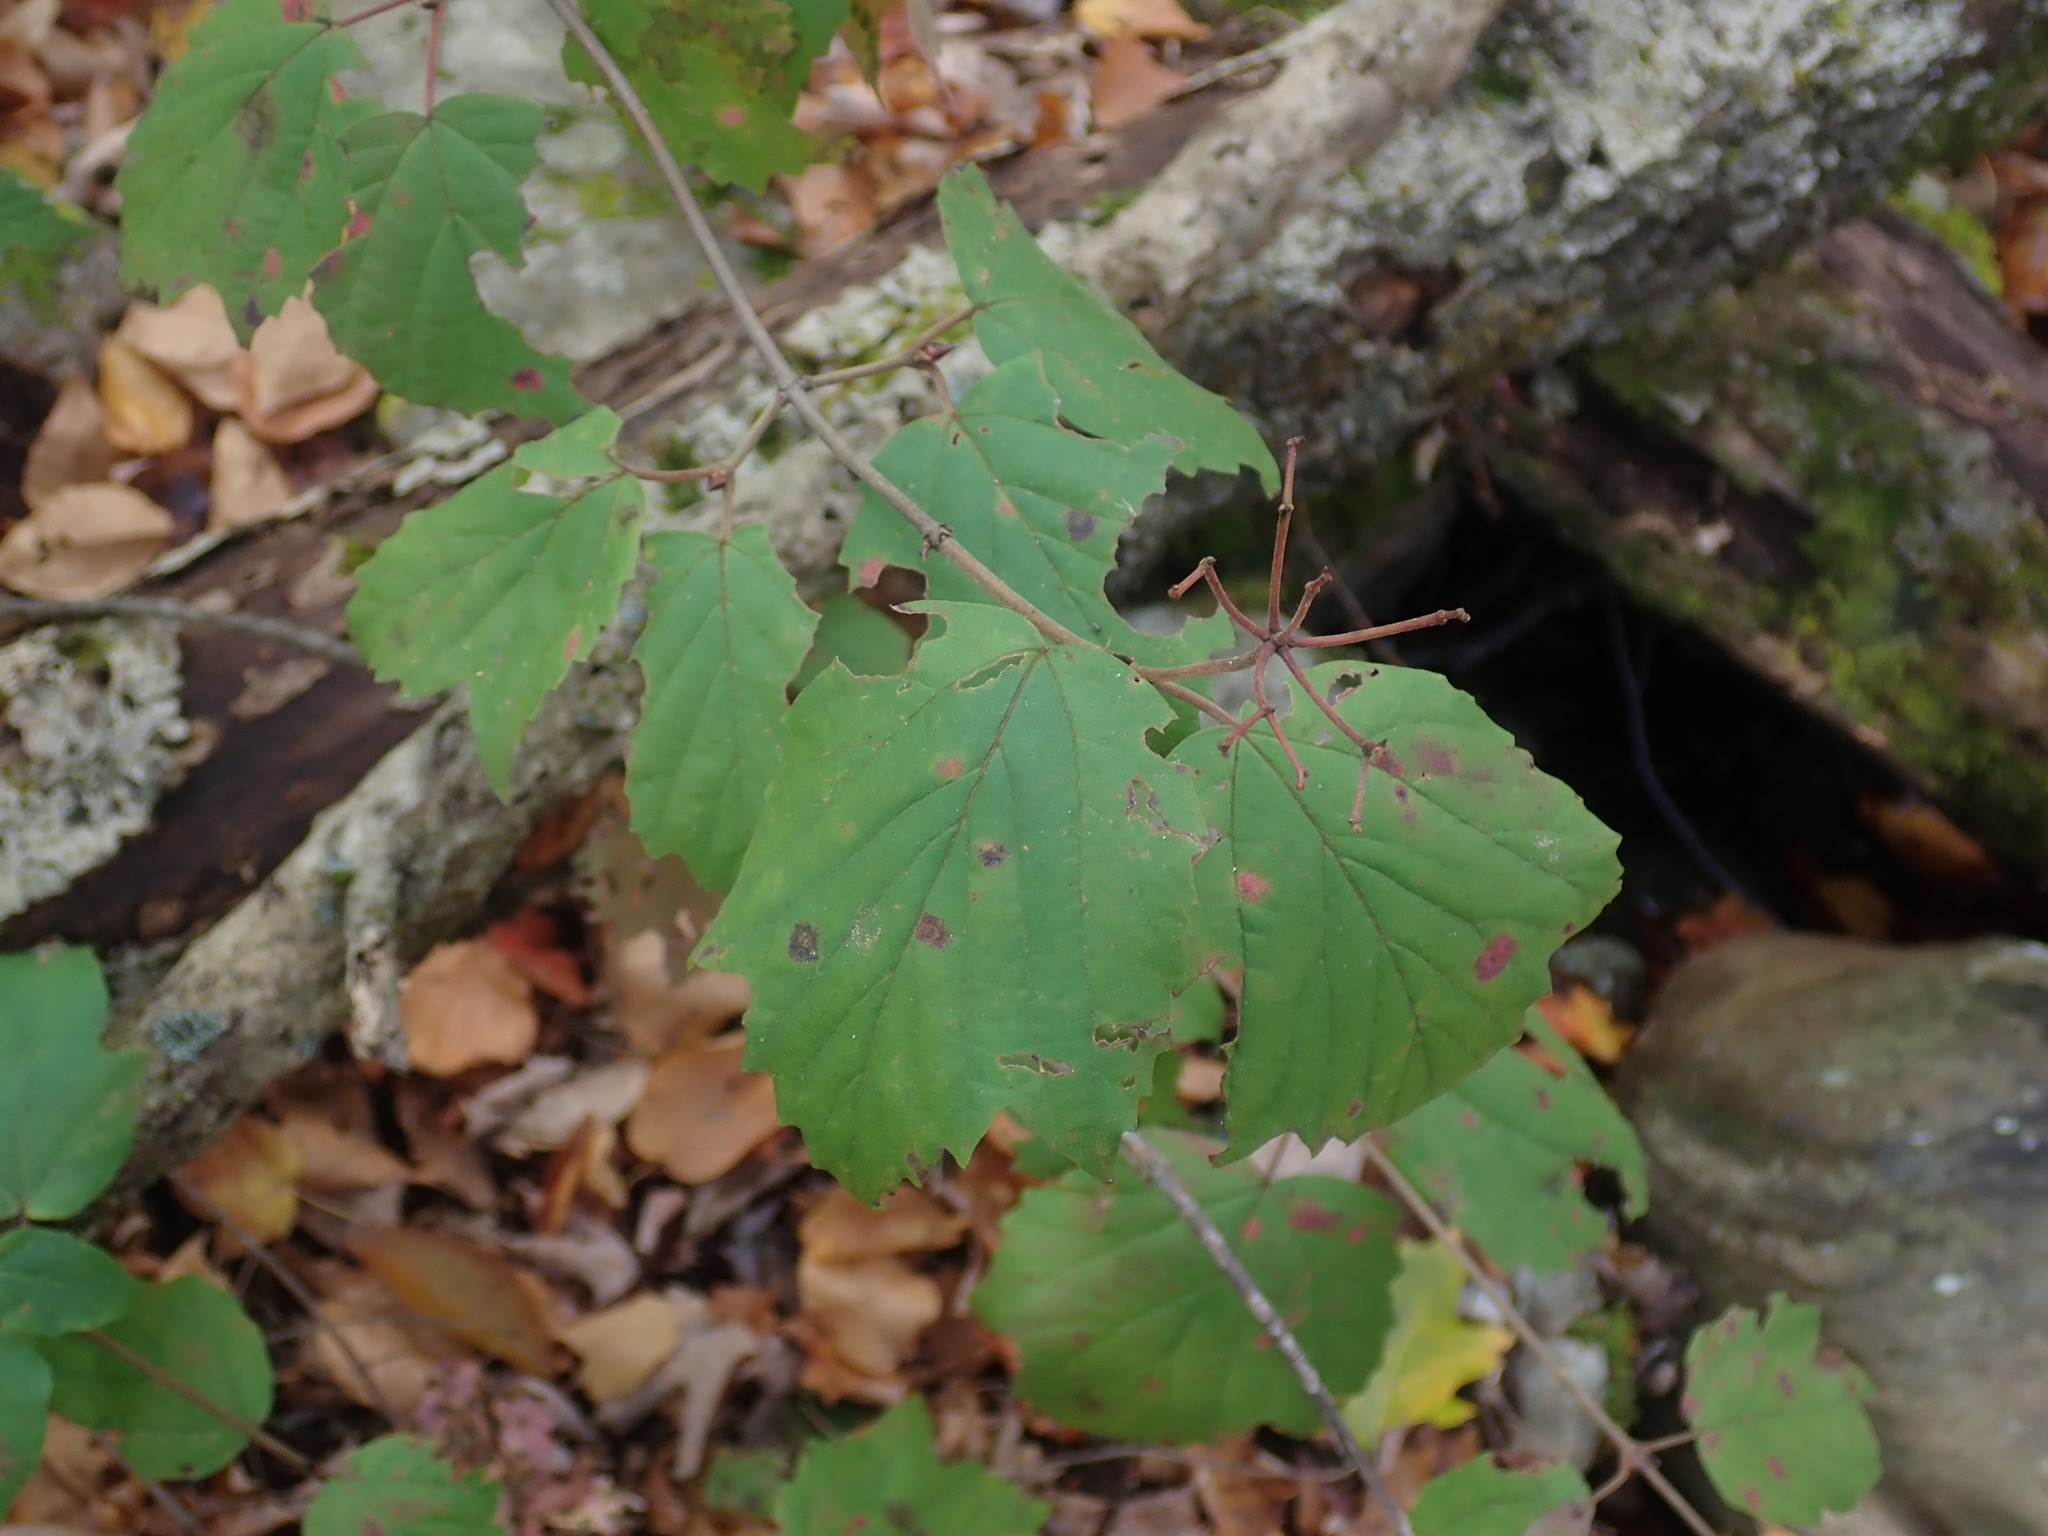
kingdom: Plantae
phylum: Tracheophyta
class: Magnoliopsida
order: Dipsacales
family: Viburnaceae
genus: Viburnum
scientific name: Viburnum acerifolium
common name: Dockmackie
